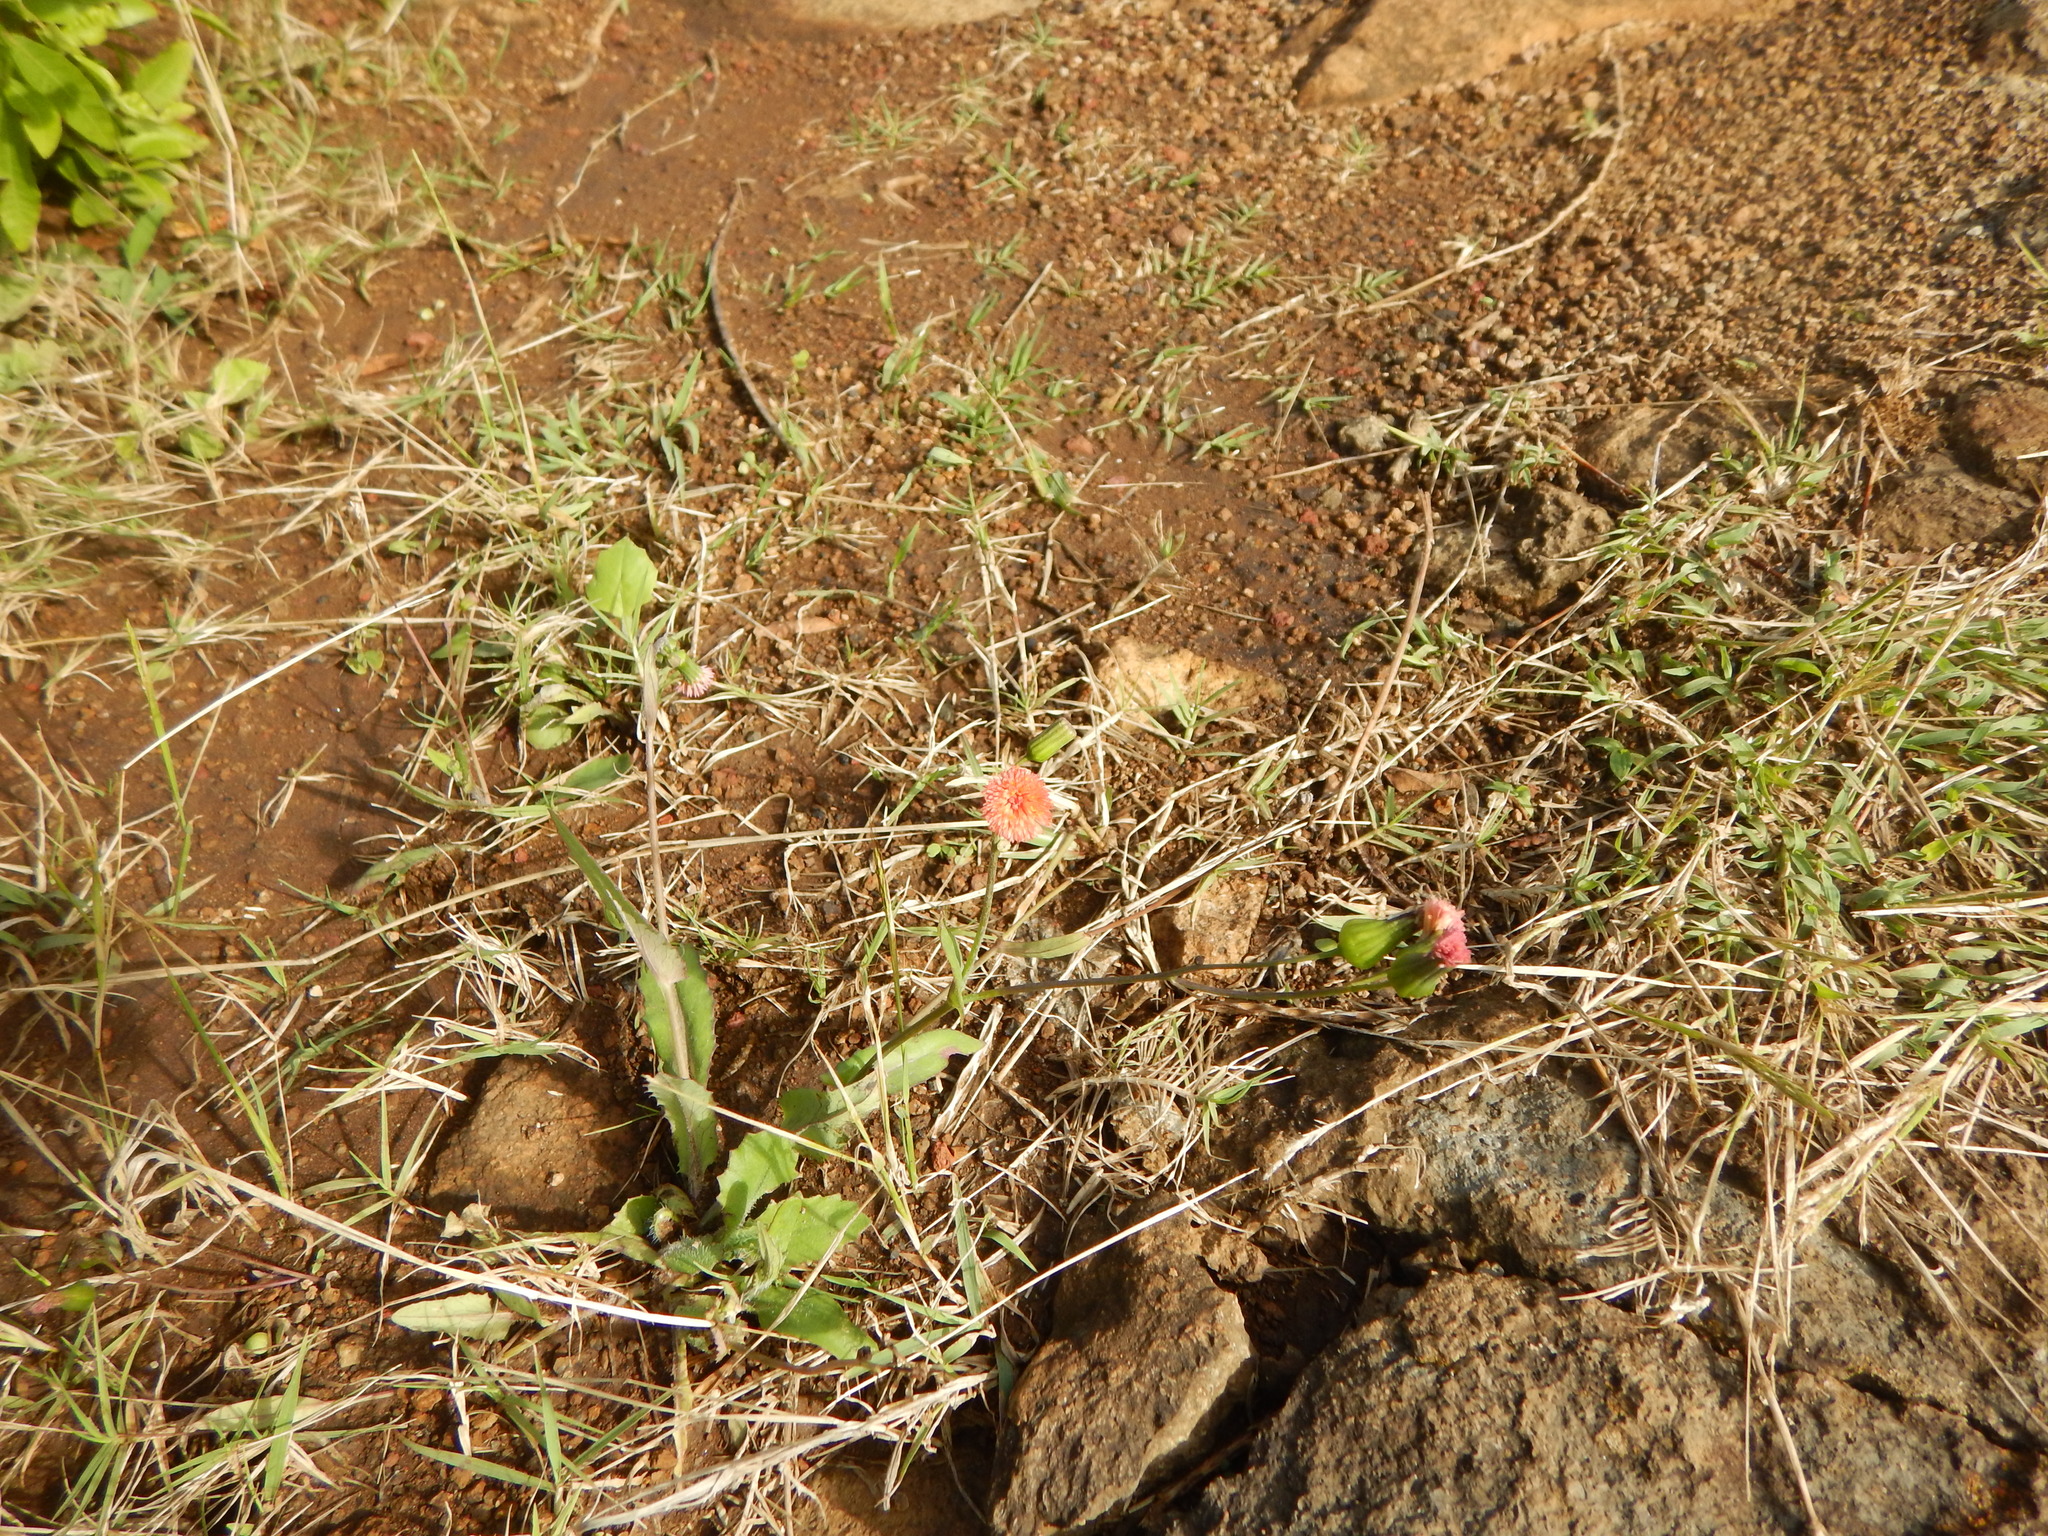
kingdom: Plantae
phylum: Tracheophyta
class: Magnoliopsida
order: Asterales
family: Asteraceae
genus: Emilia
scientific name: Emilia fosbergii
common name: Florida tasselflower
